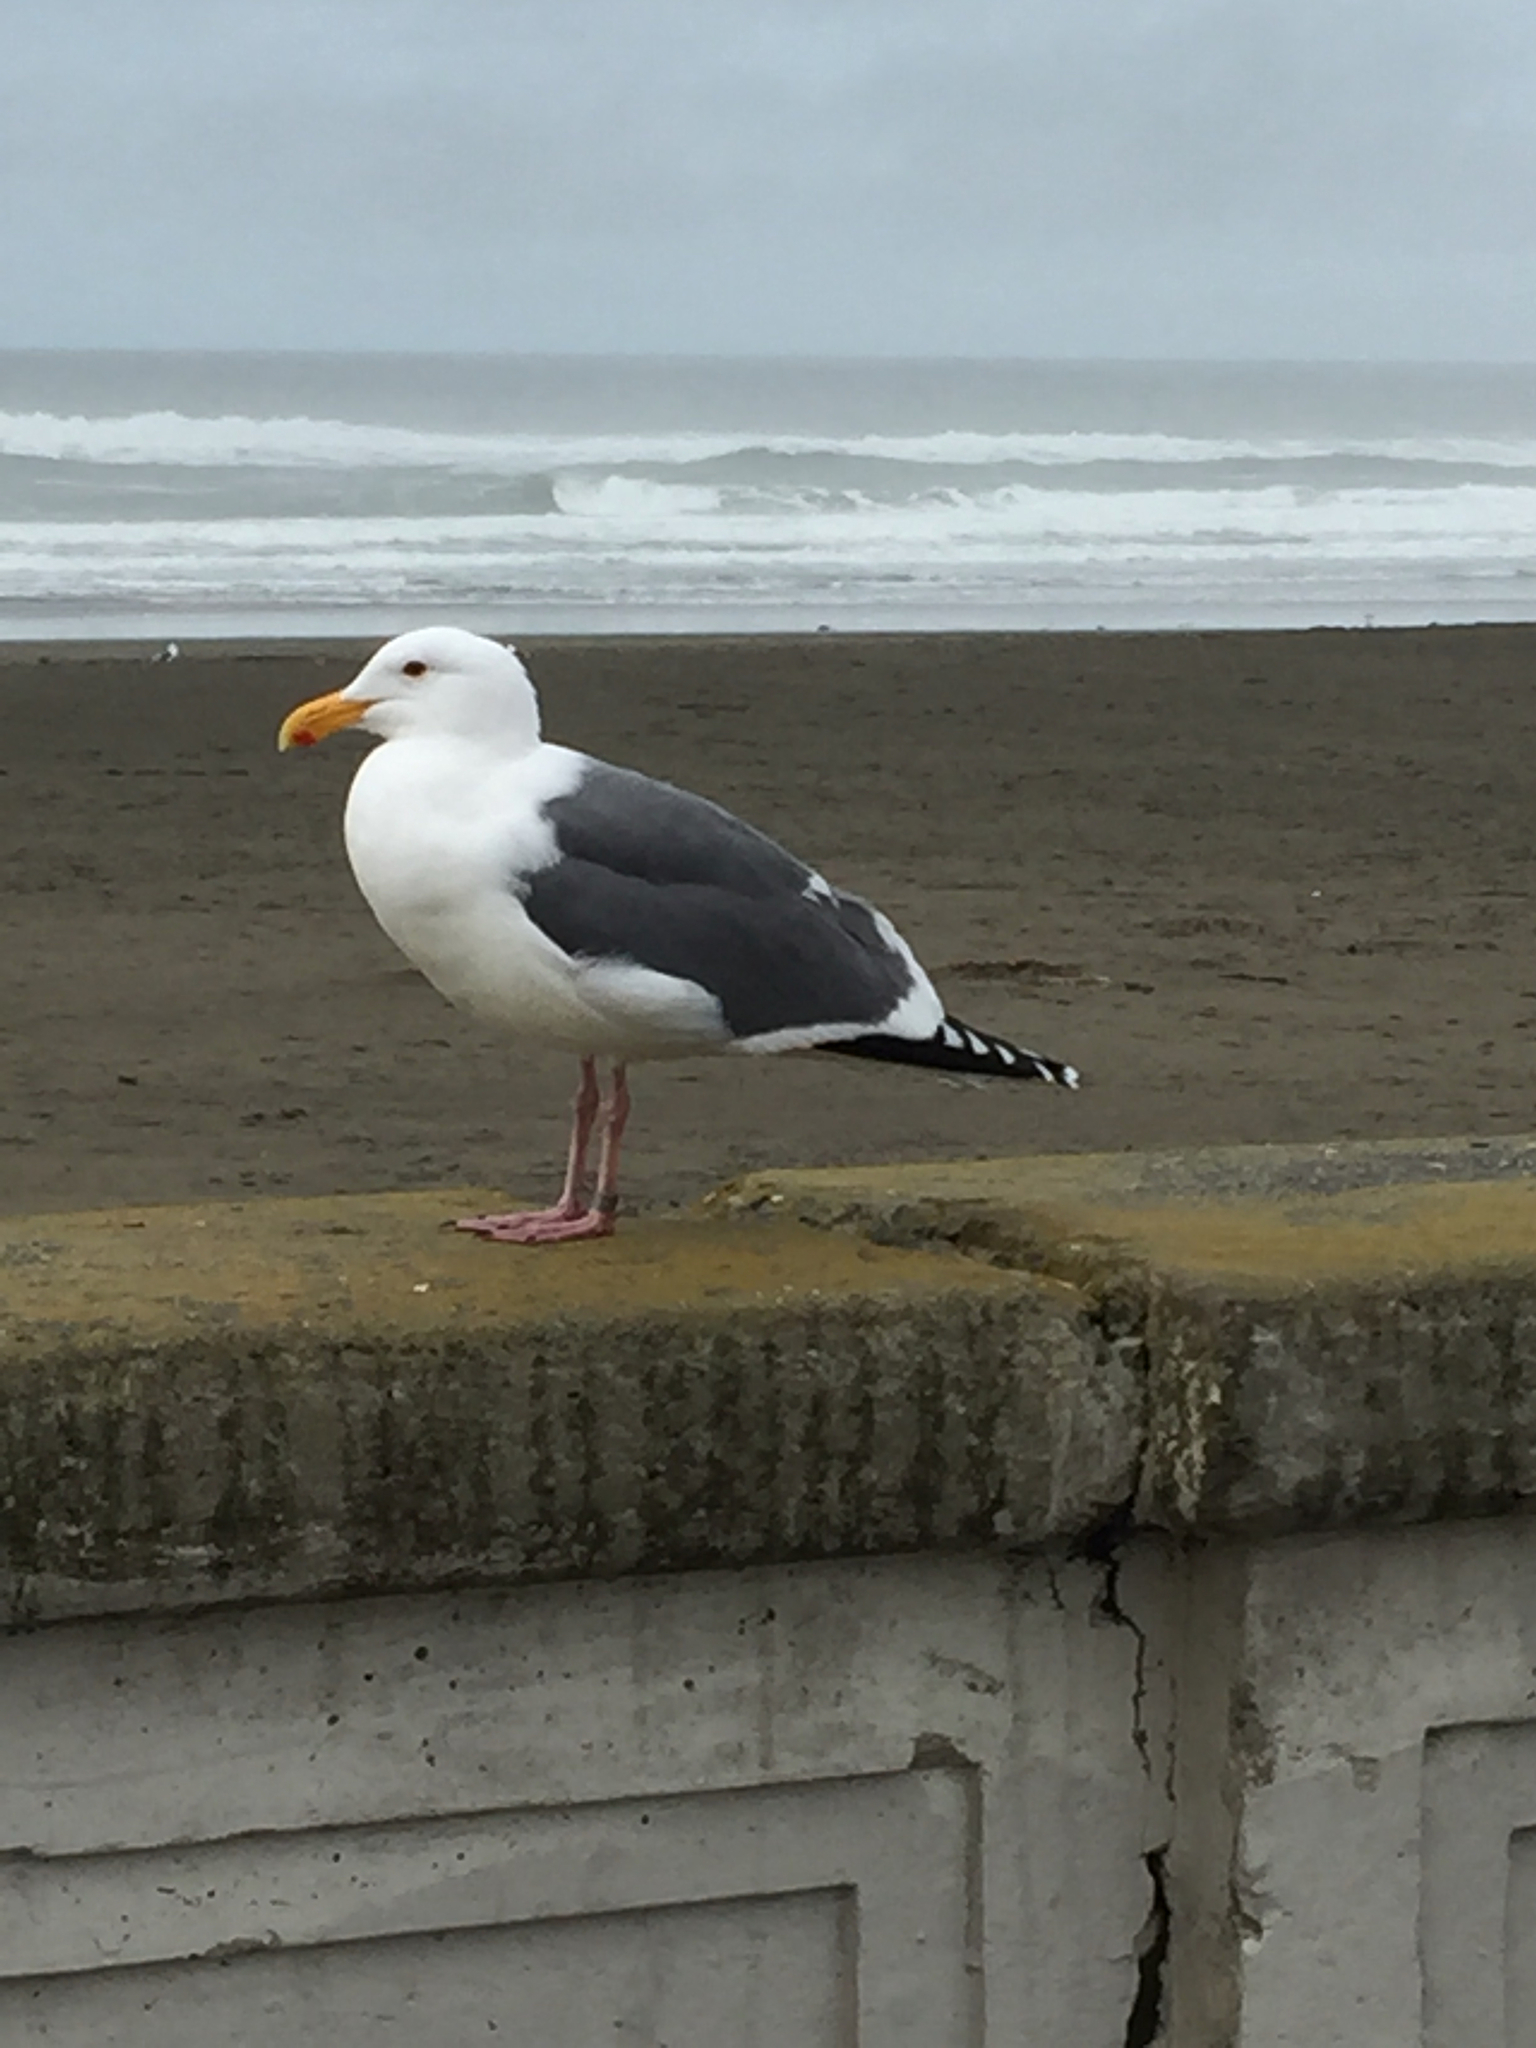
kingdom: Animalia
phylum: Chordata
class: Aves
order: Charadriiformes
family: Laridae
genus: Larus
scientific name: Larus occidentalis
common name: Western gull
